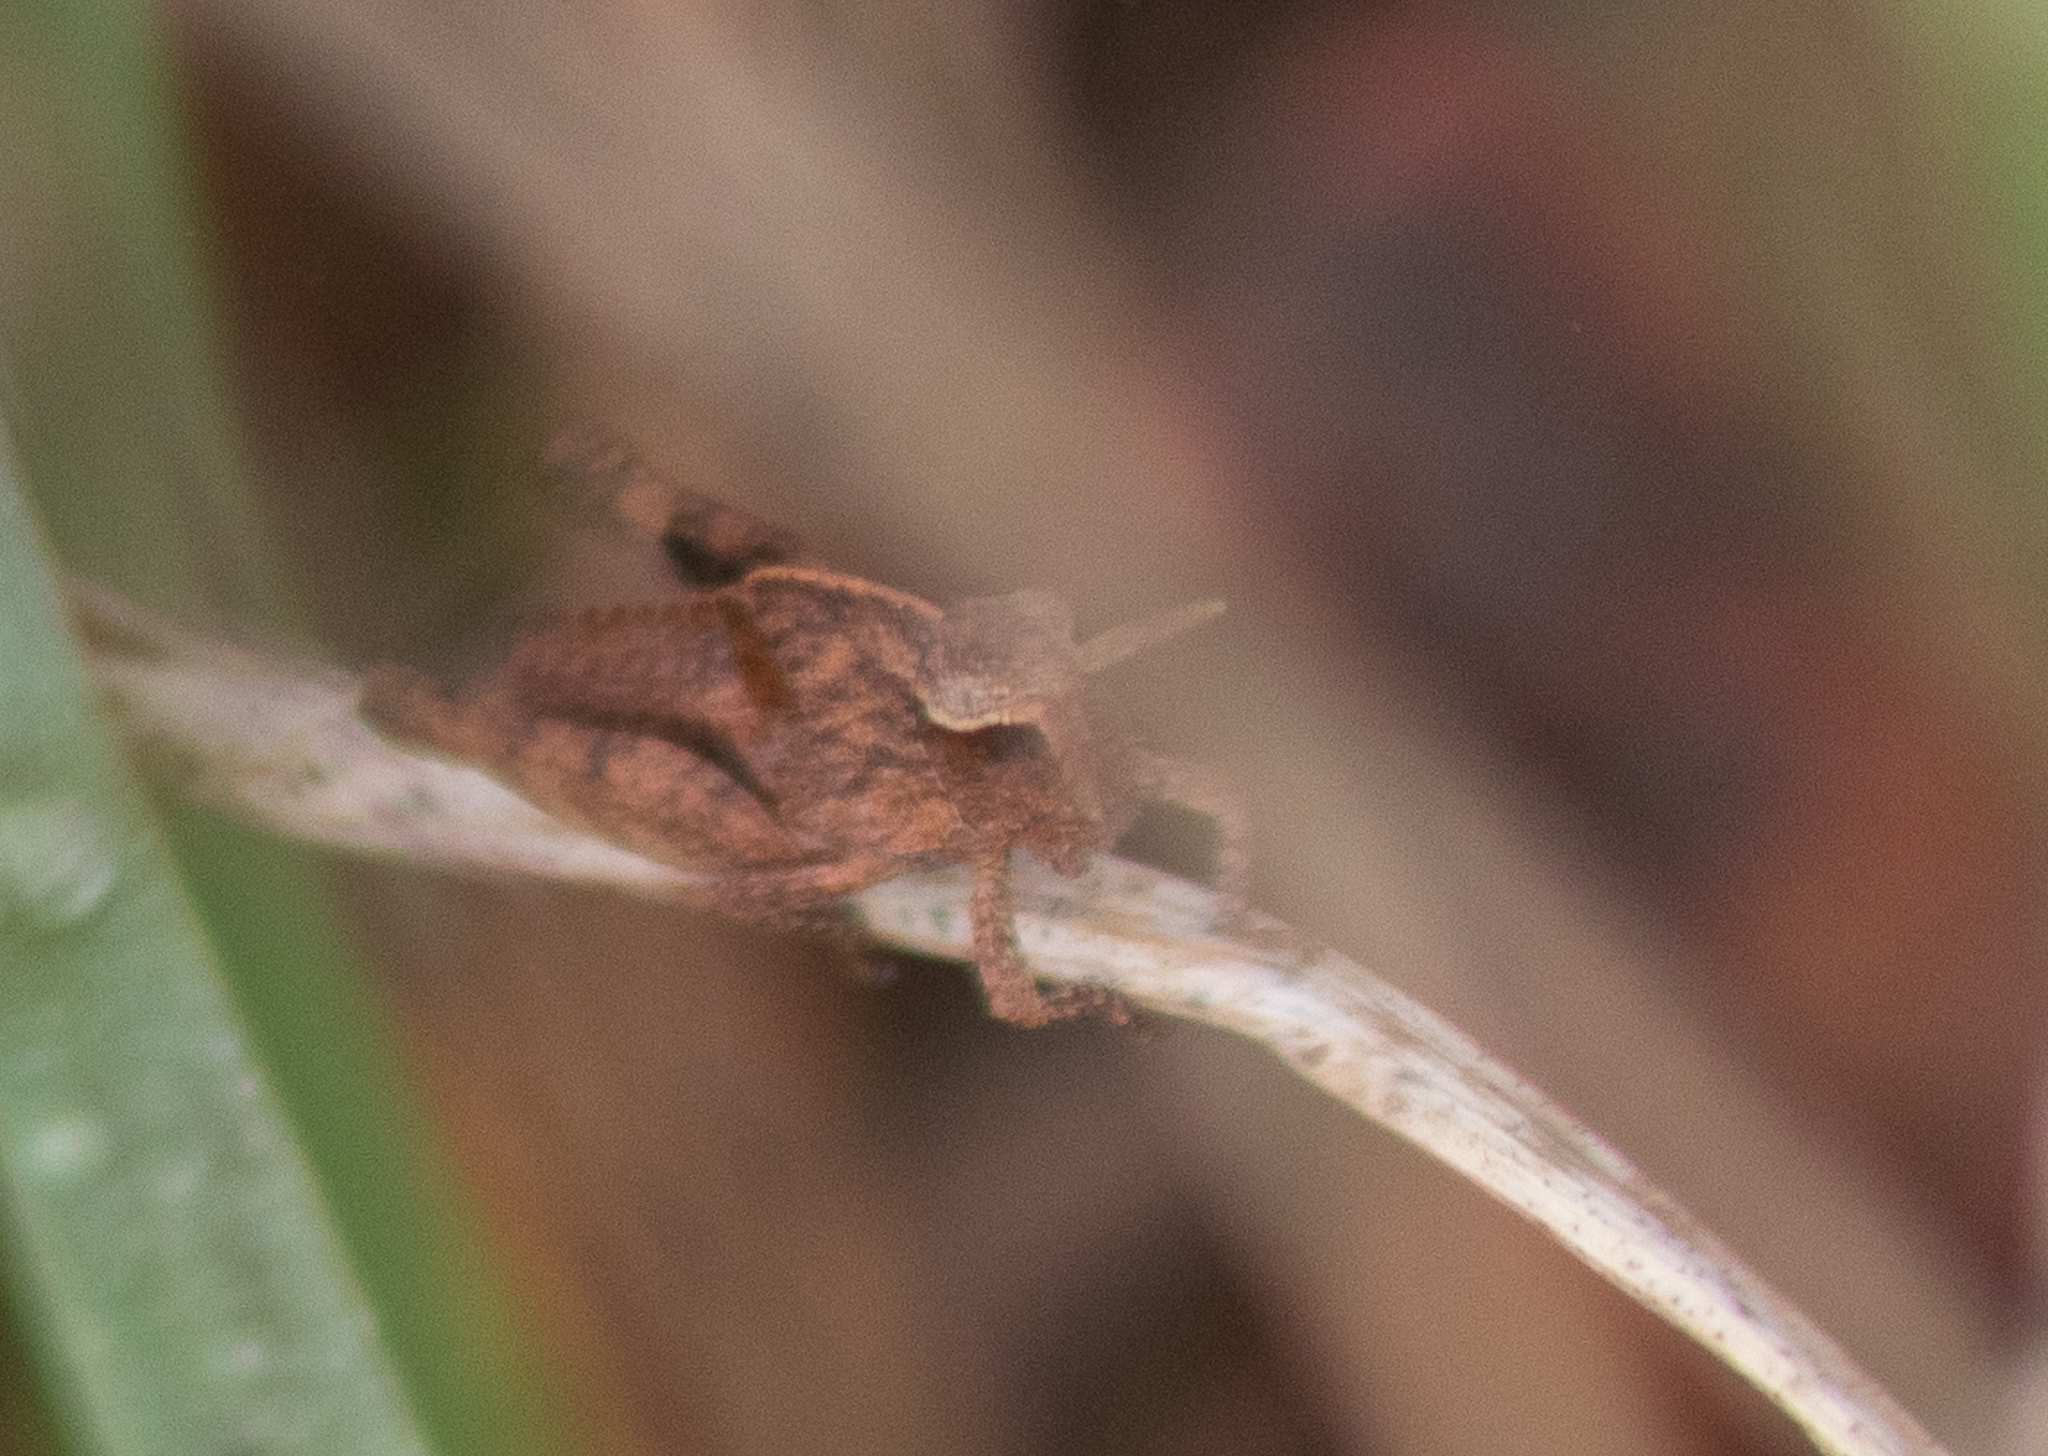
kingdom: Animalia
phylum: Arthropoda
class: Insecta
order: Orthoptera
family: Acrididae
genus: Chortophaga
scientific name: Chortophaga viridifasciata
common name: Green-striped grasshopper
